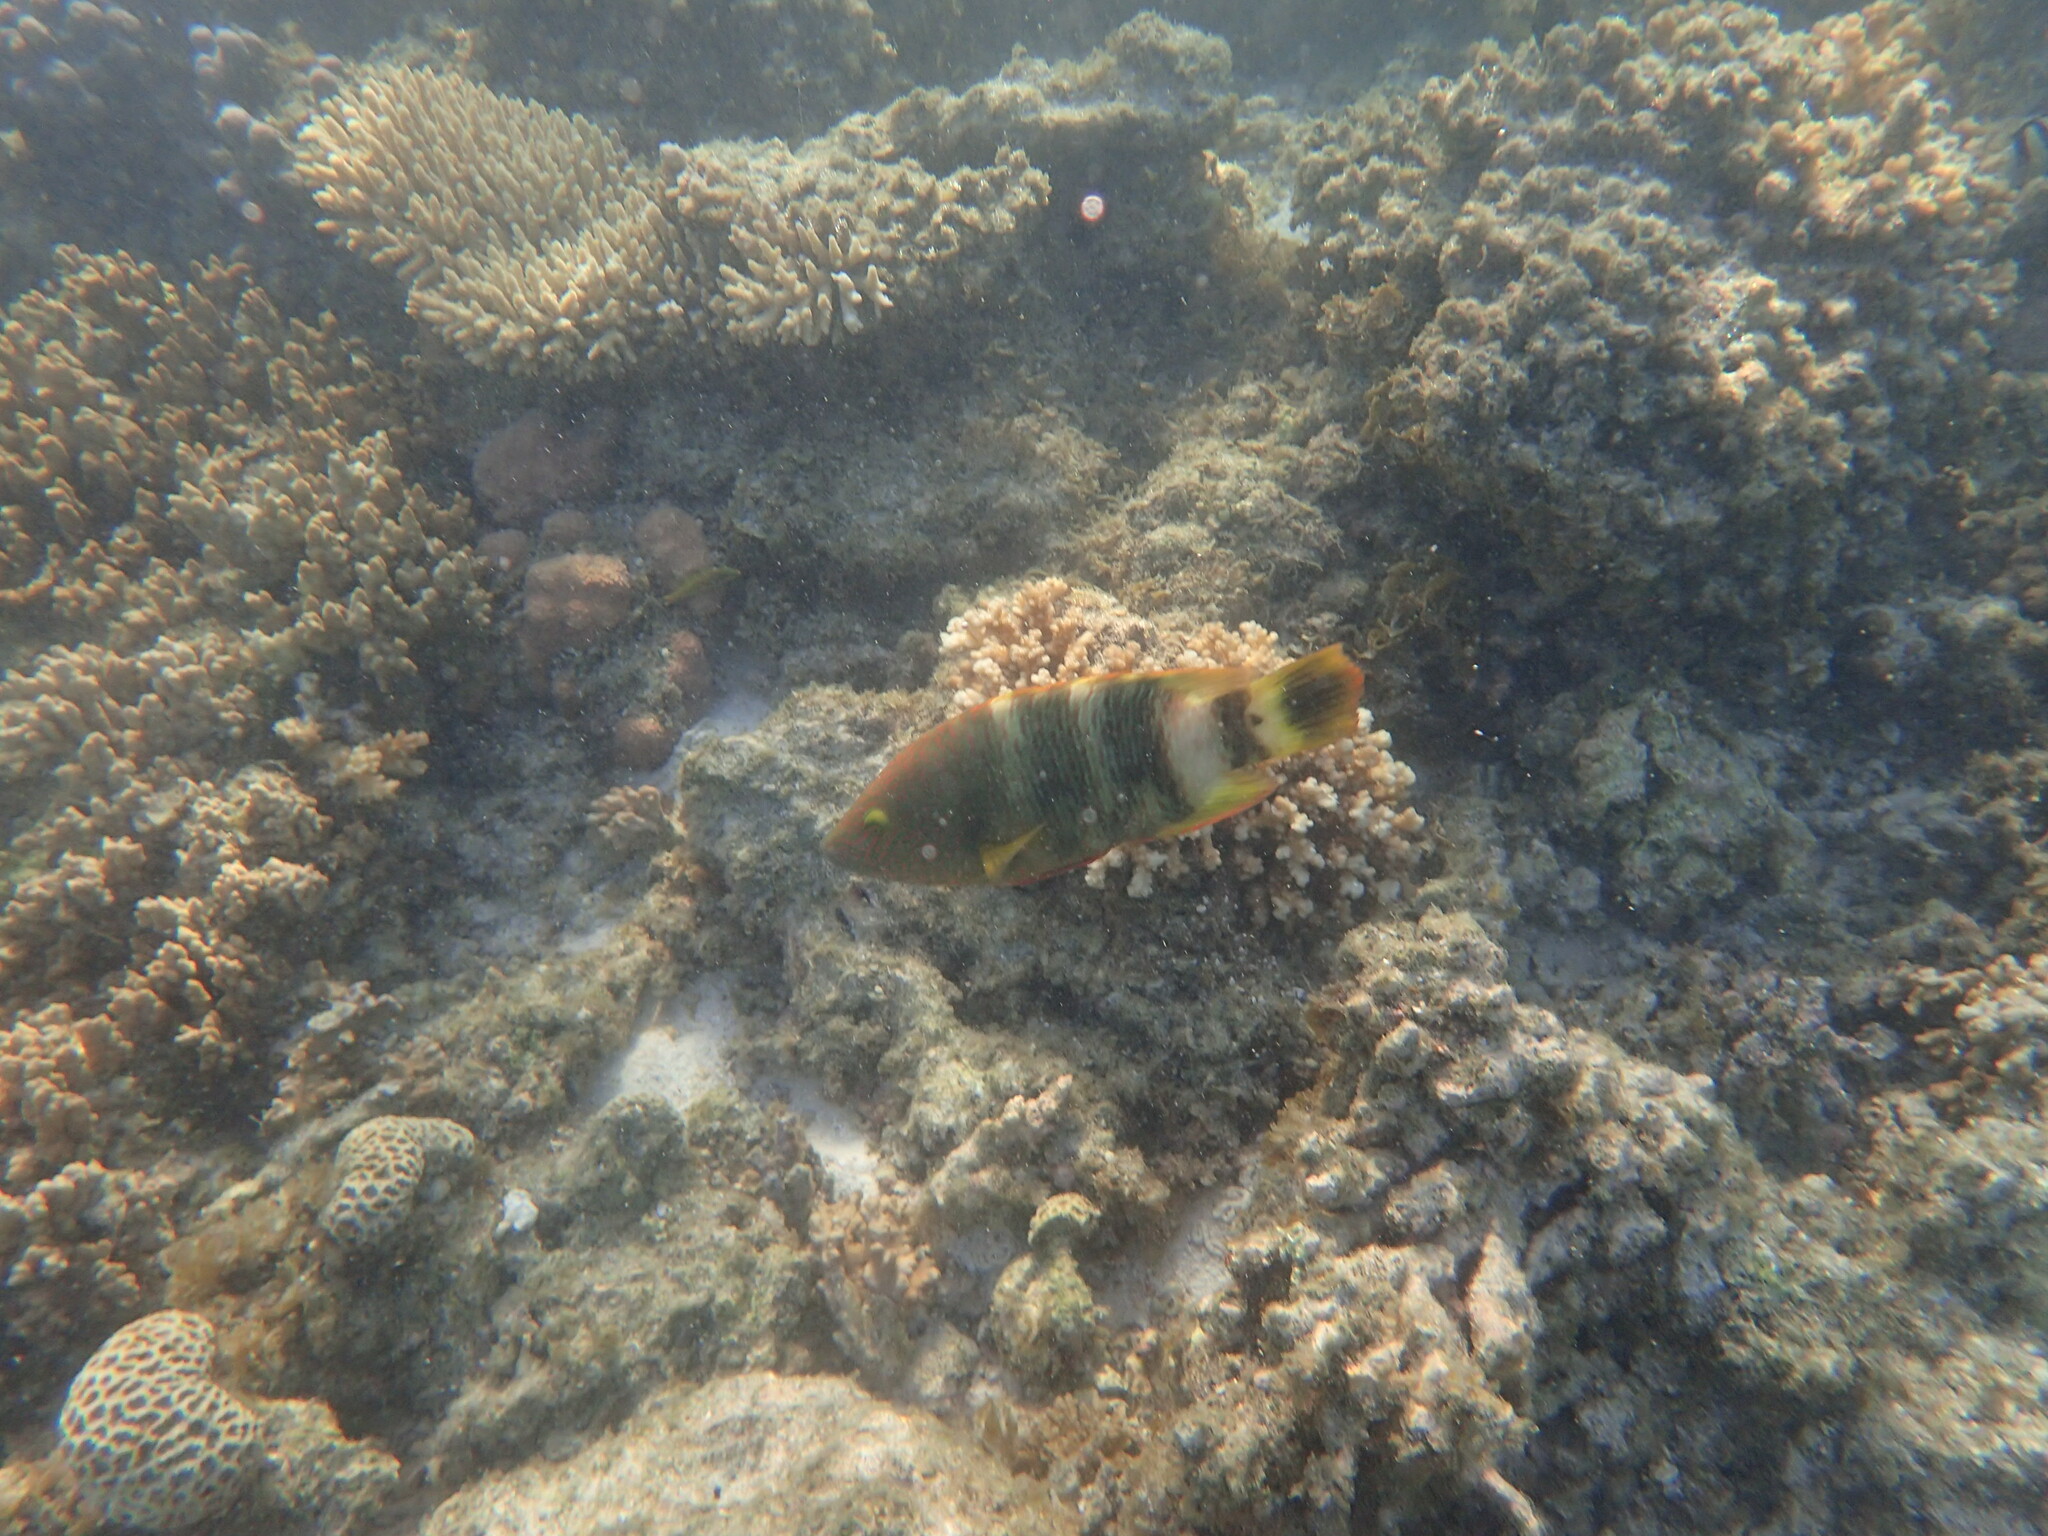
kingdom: Animalia
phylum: Chordata
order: Perciformes
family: Labridae
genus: Cheilinus
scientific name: Cheilinus trilobatus
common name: Tripletail maori wrasse
